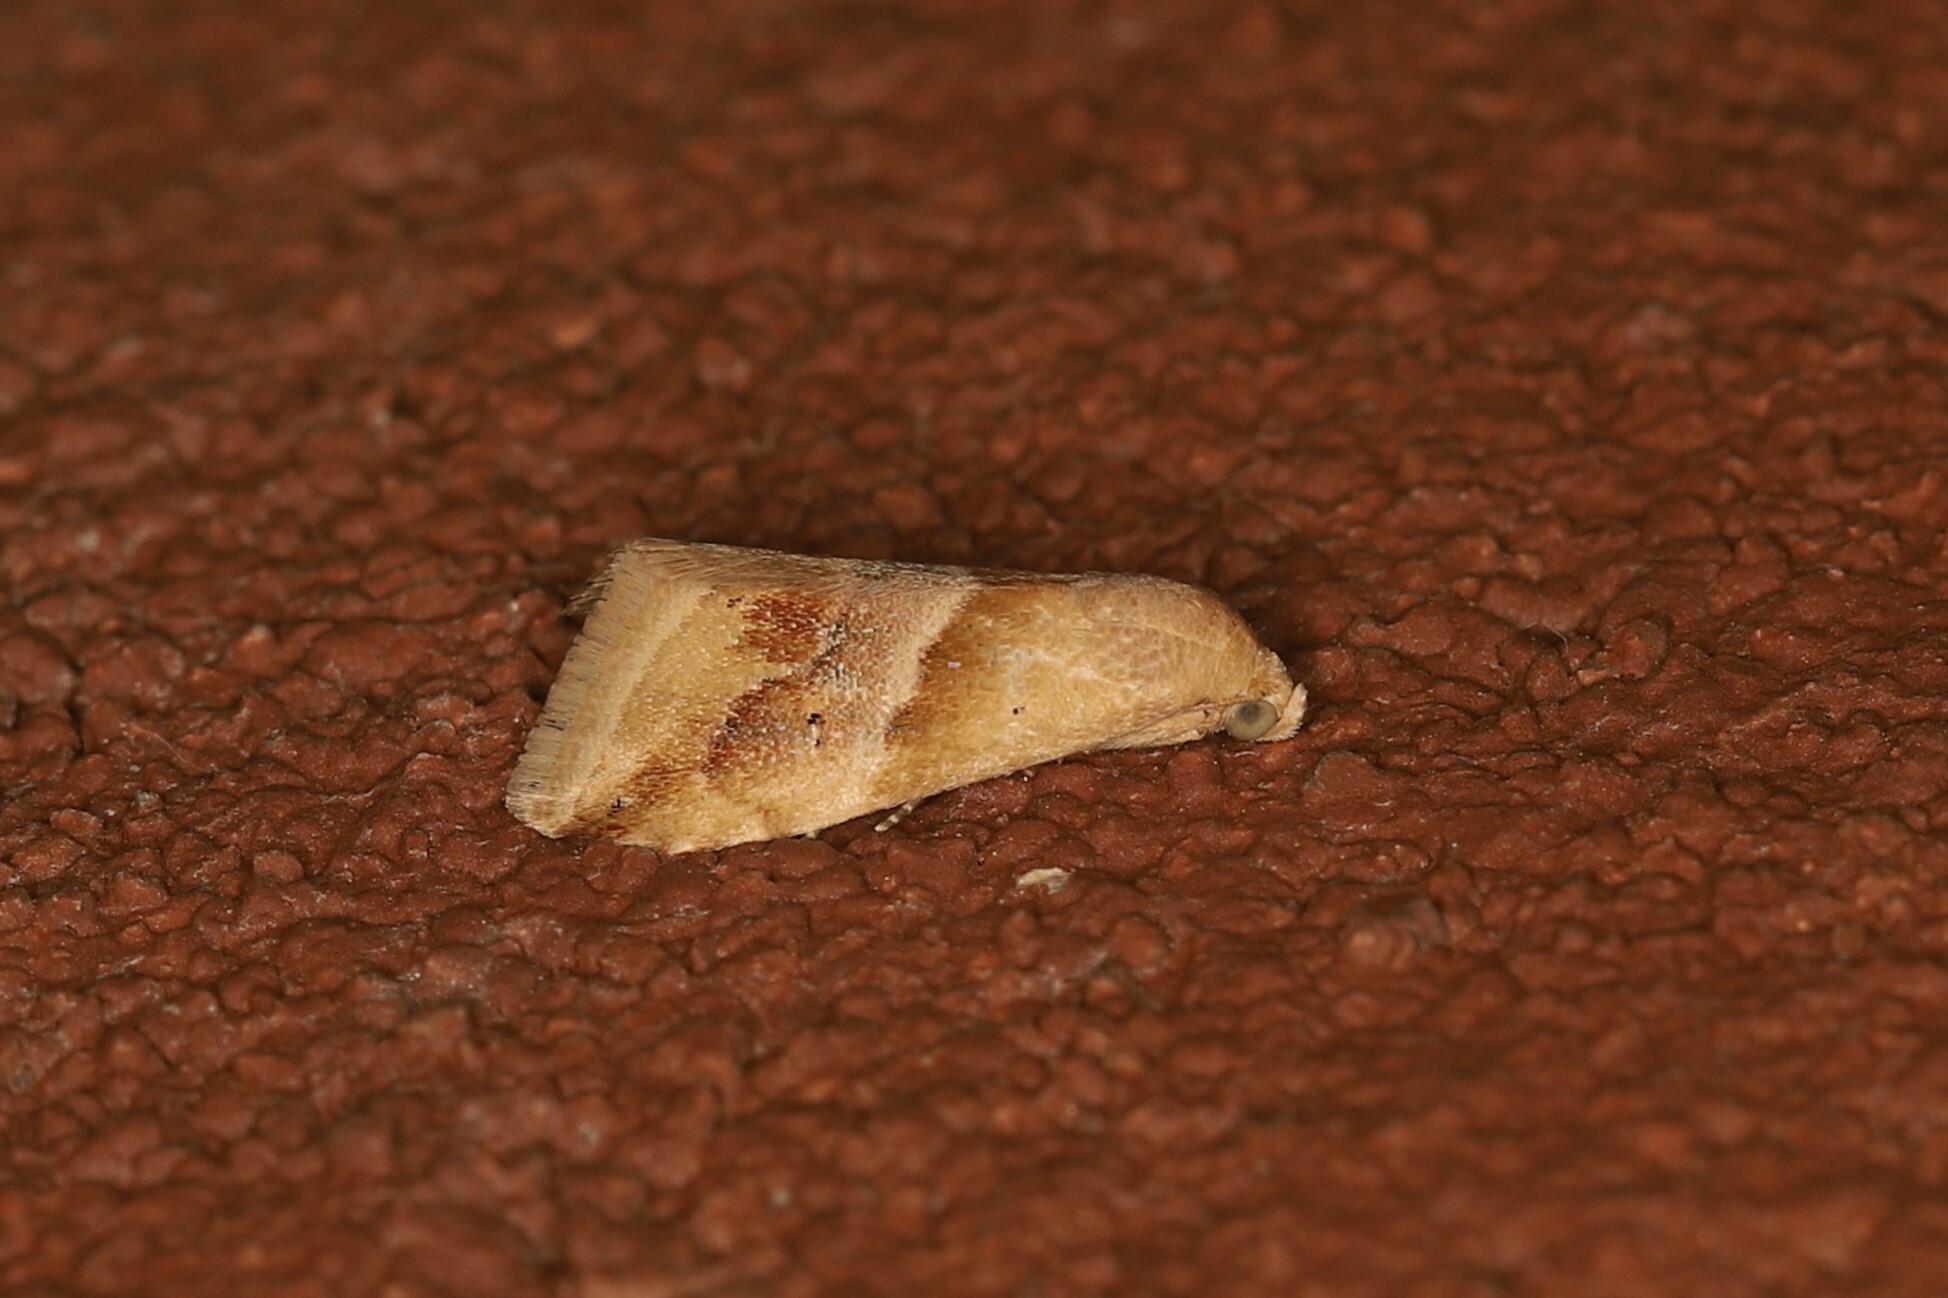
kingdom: Animalia
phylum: Arthropoda
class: Insecta
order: Lepidoptera
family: Noctuidae
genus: Eublemma
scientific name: Eublemma parva
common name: Small marbled
